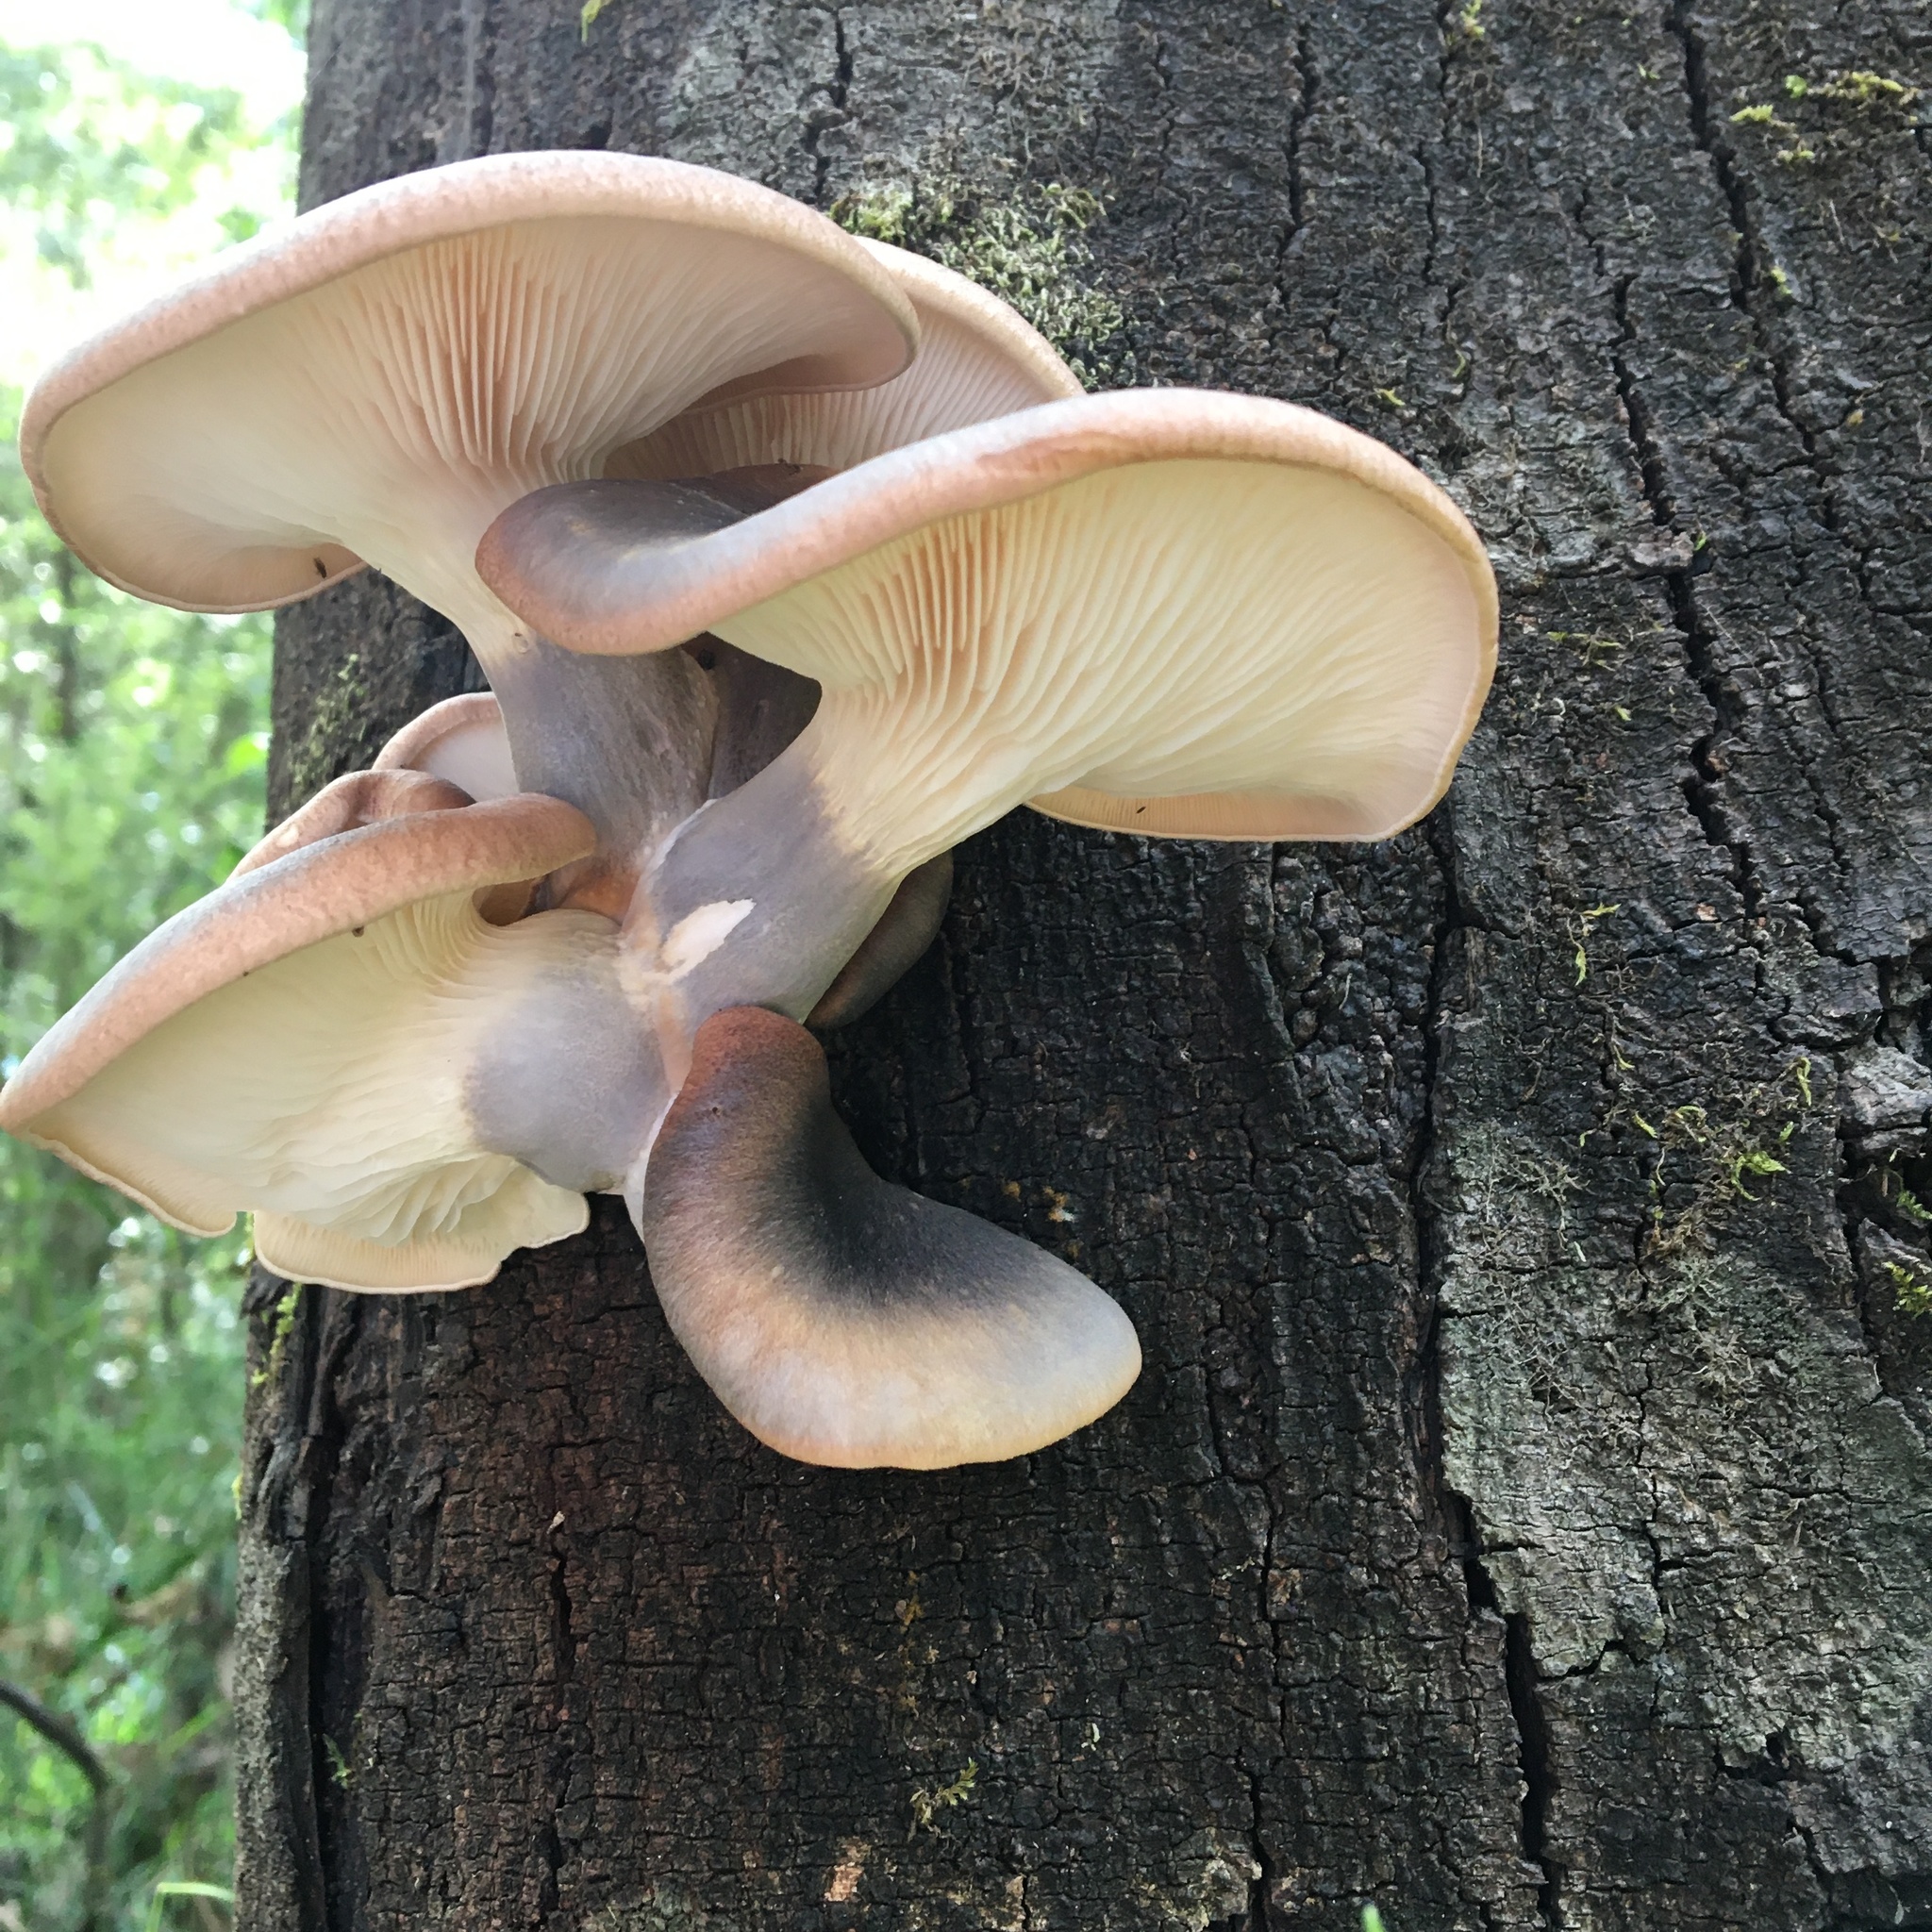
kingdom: Fungi
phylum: Basidiomycota
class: Agaricomycetes
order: Agaricales
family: Omphalotaceae
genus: Omphalotus
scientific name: Omphalotus nidiformis
